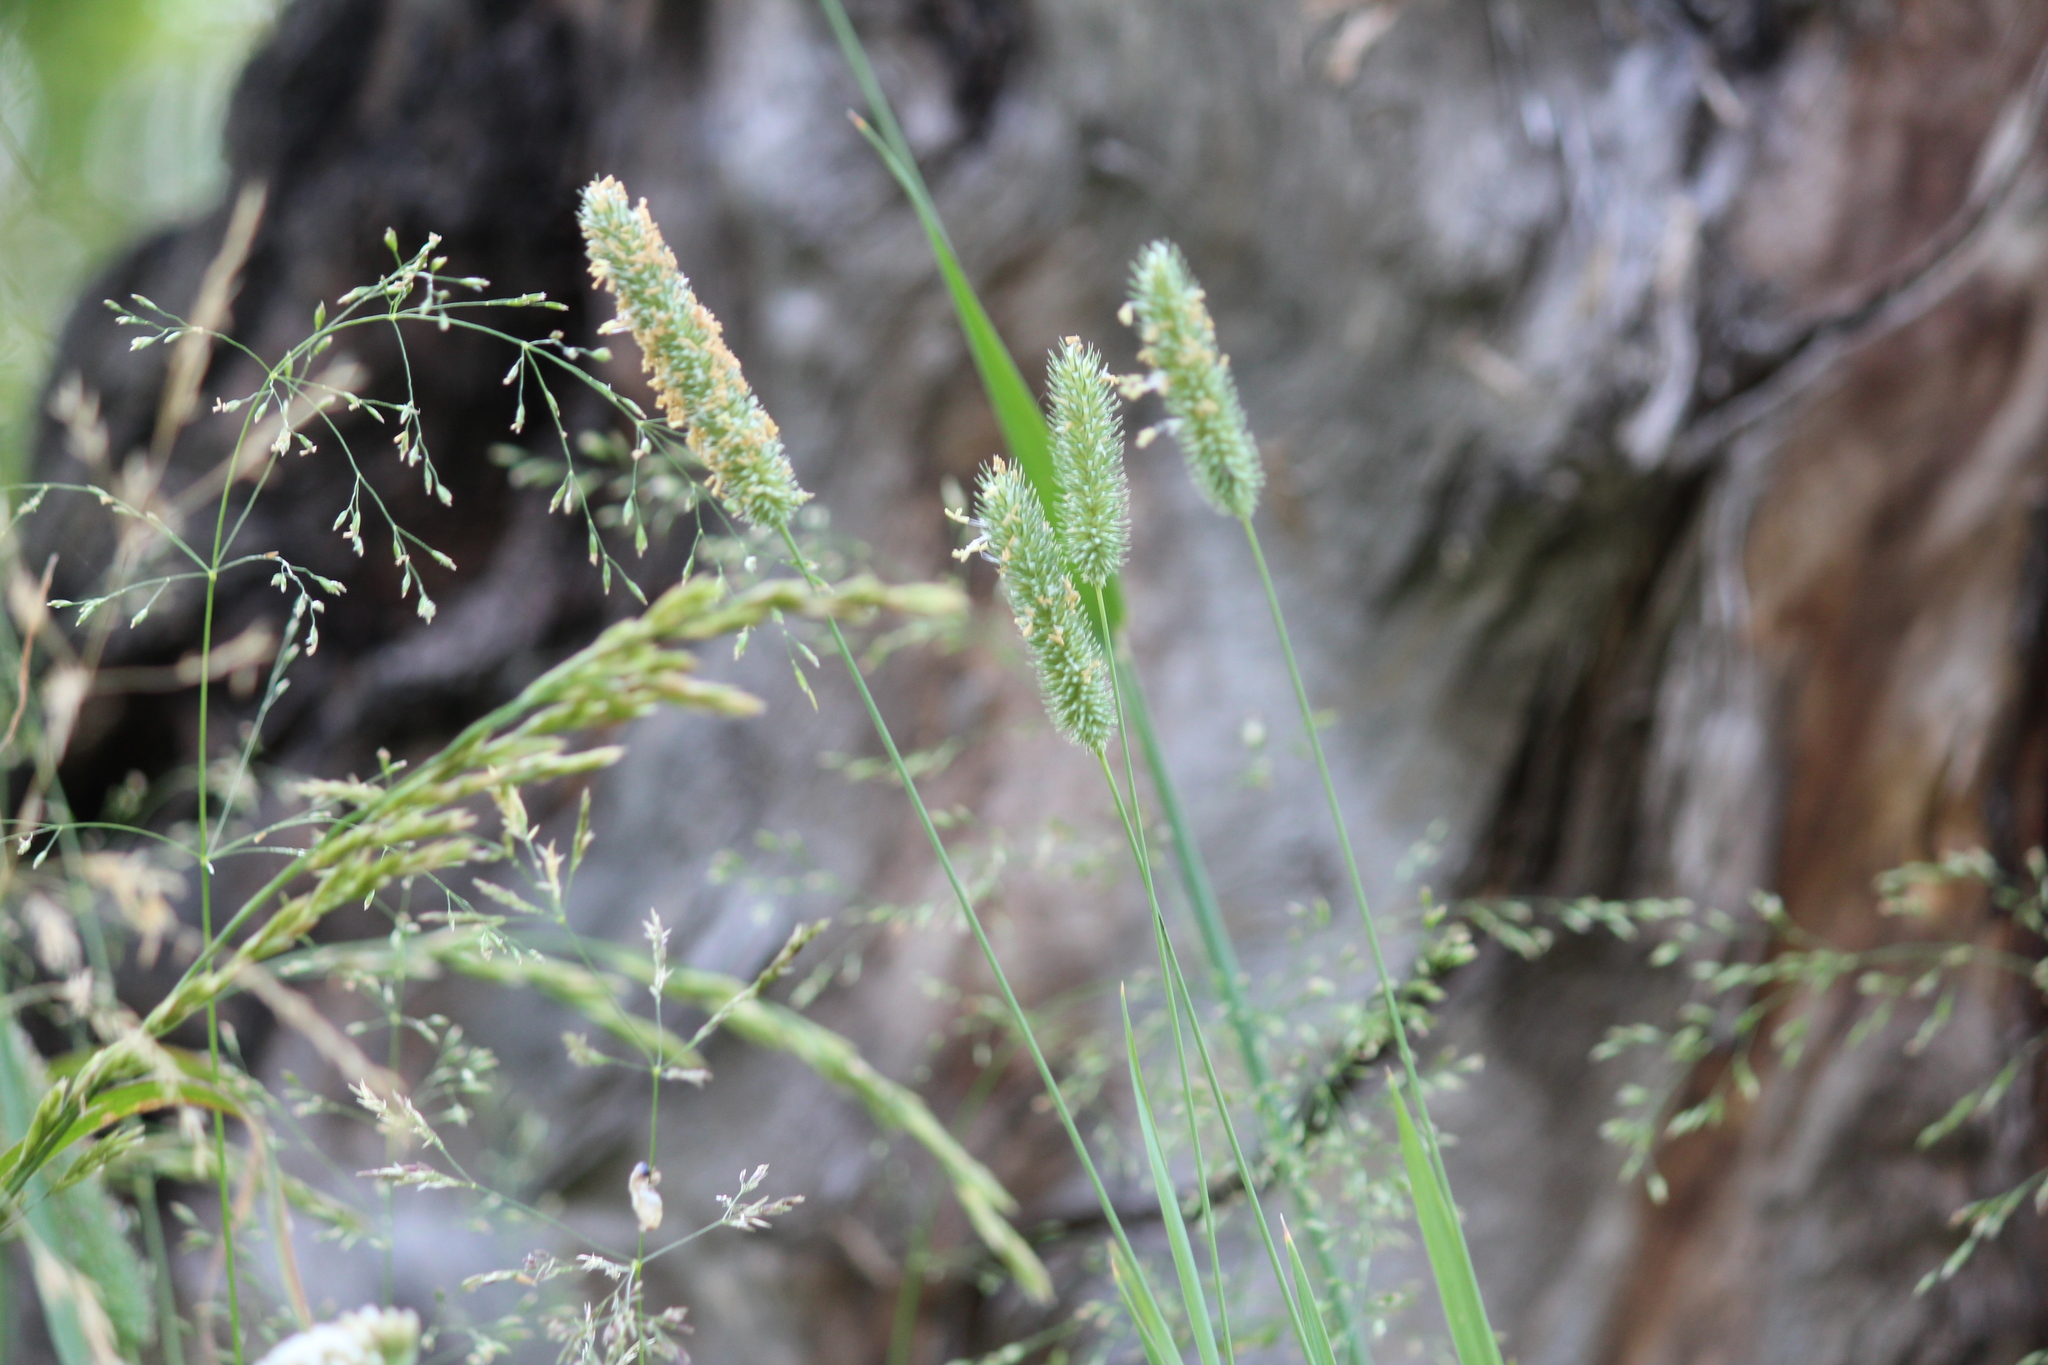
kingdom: Plantae
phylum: Tracheophyta
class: Liliopsida
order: Poales
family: Poaceae
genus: Phleum
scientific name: Phleum pratense
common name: Timothy grass
